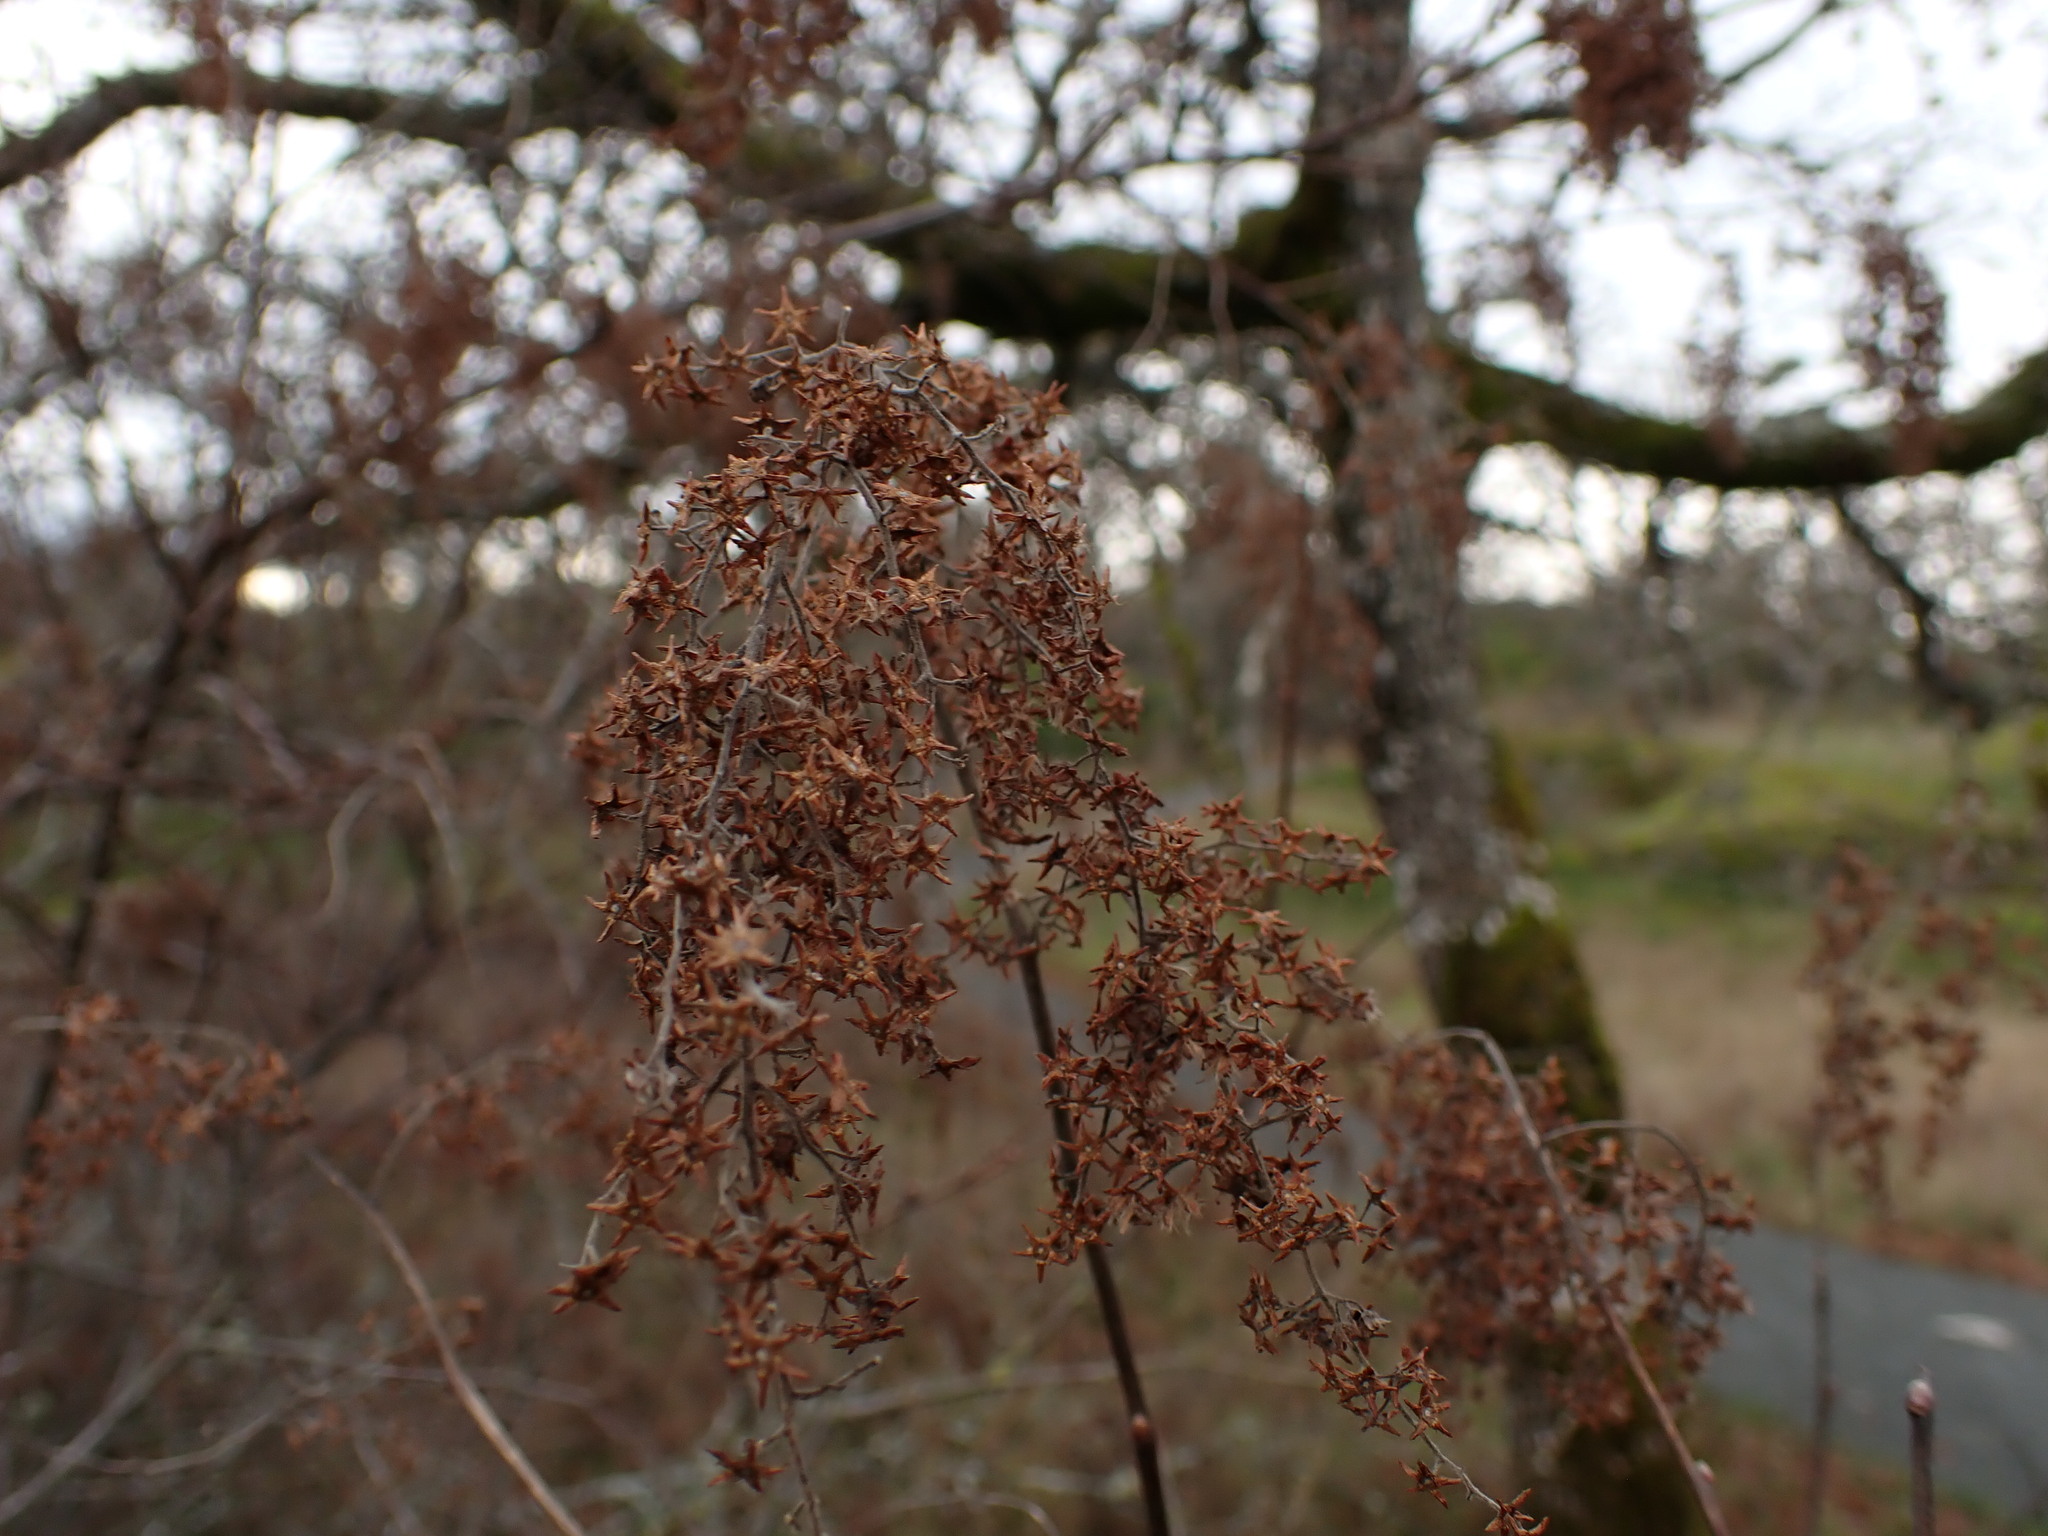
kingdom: Plantae
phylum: Tracheophyta
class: Magnoliopsida
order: Rosales
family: Rosaceae
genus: Holodiscus
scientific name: Holodiscus discolor
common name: Oceanspray
